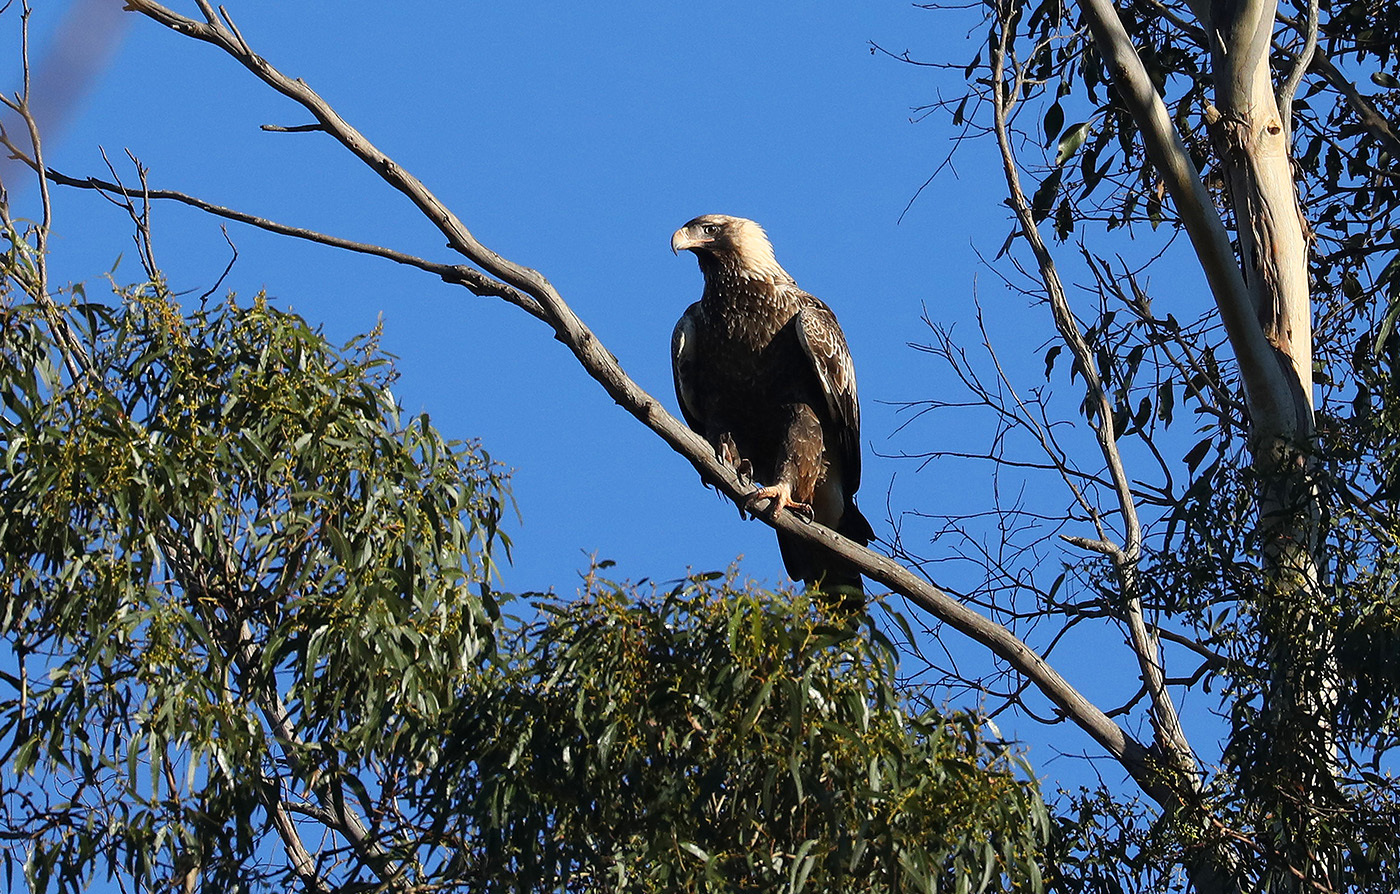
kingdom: Animalia
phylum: Chordata
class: Aves
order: Accipitriformes
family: Accipitridae
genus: Aquila
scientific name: Aquila audax
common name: Wedge-tailed eagle
